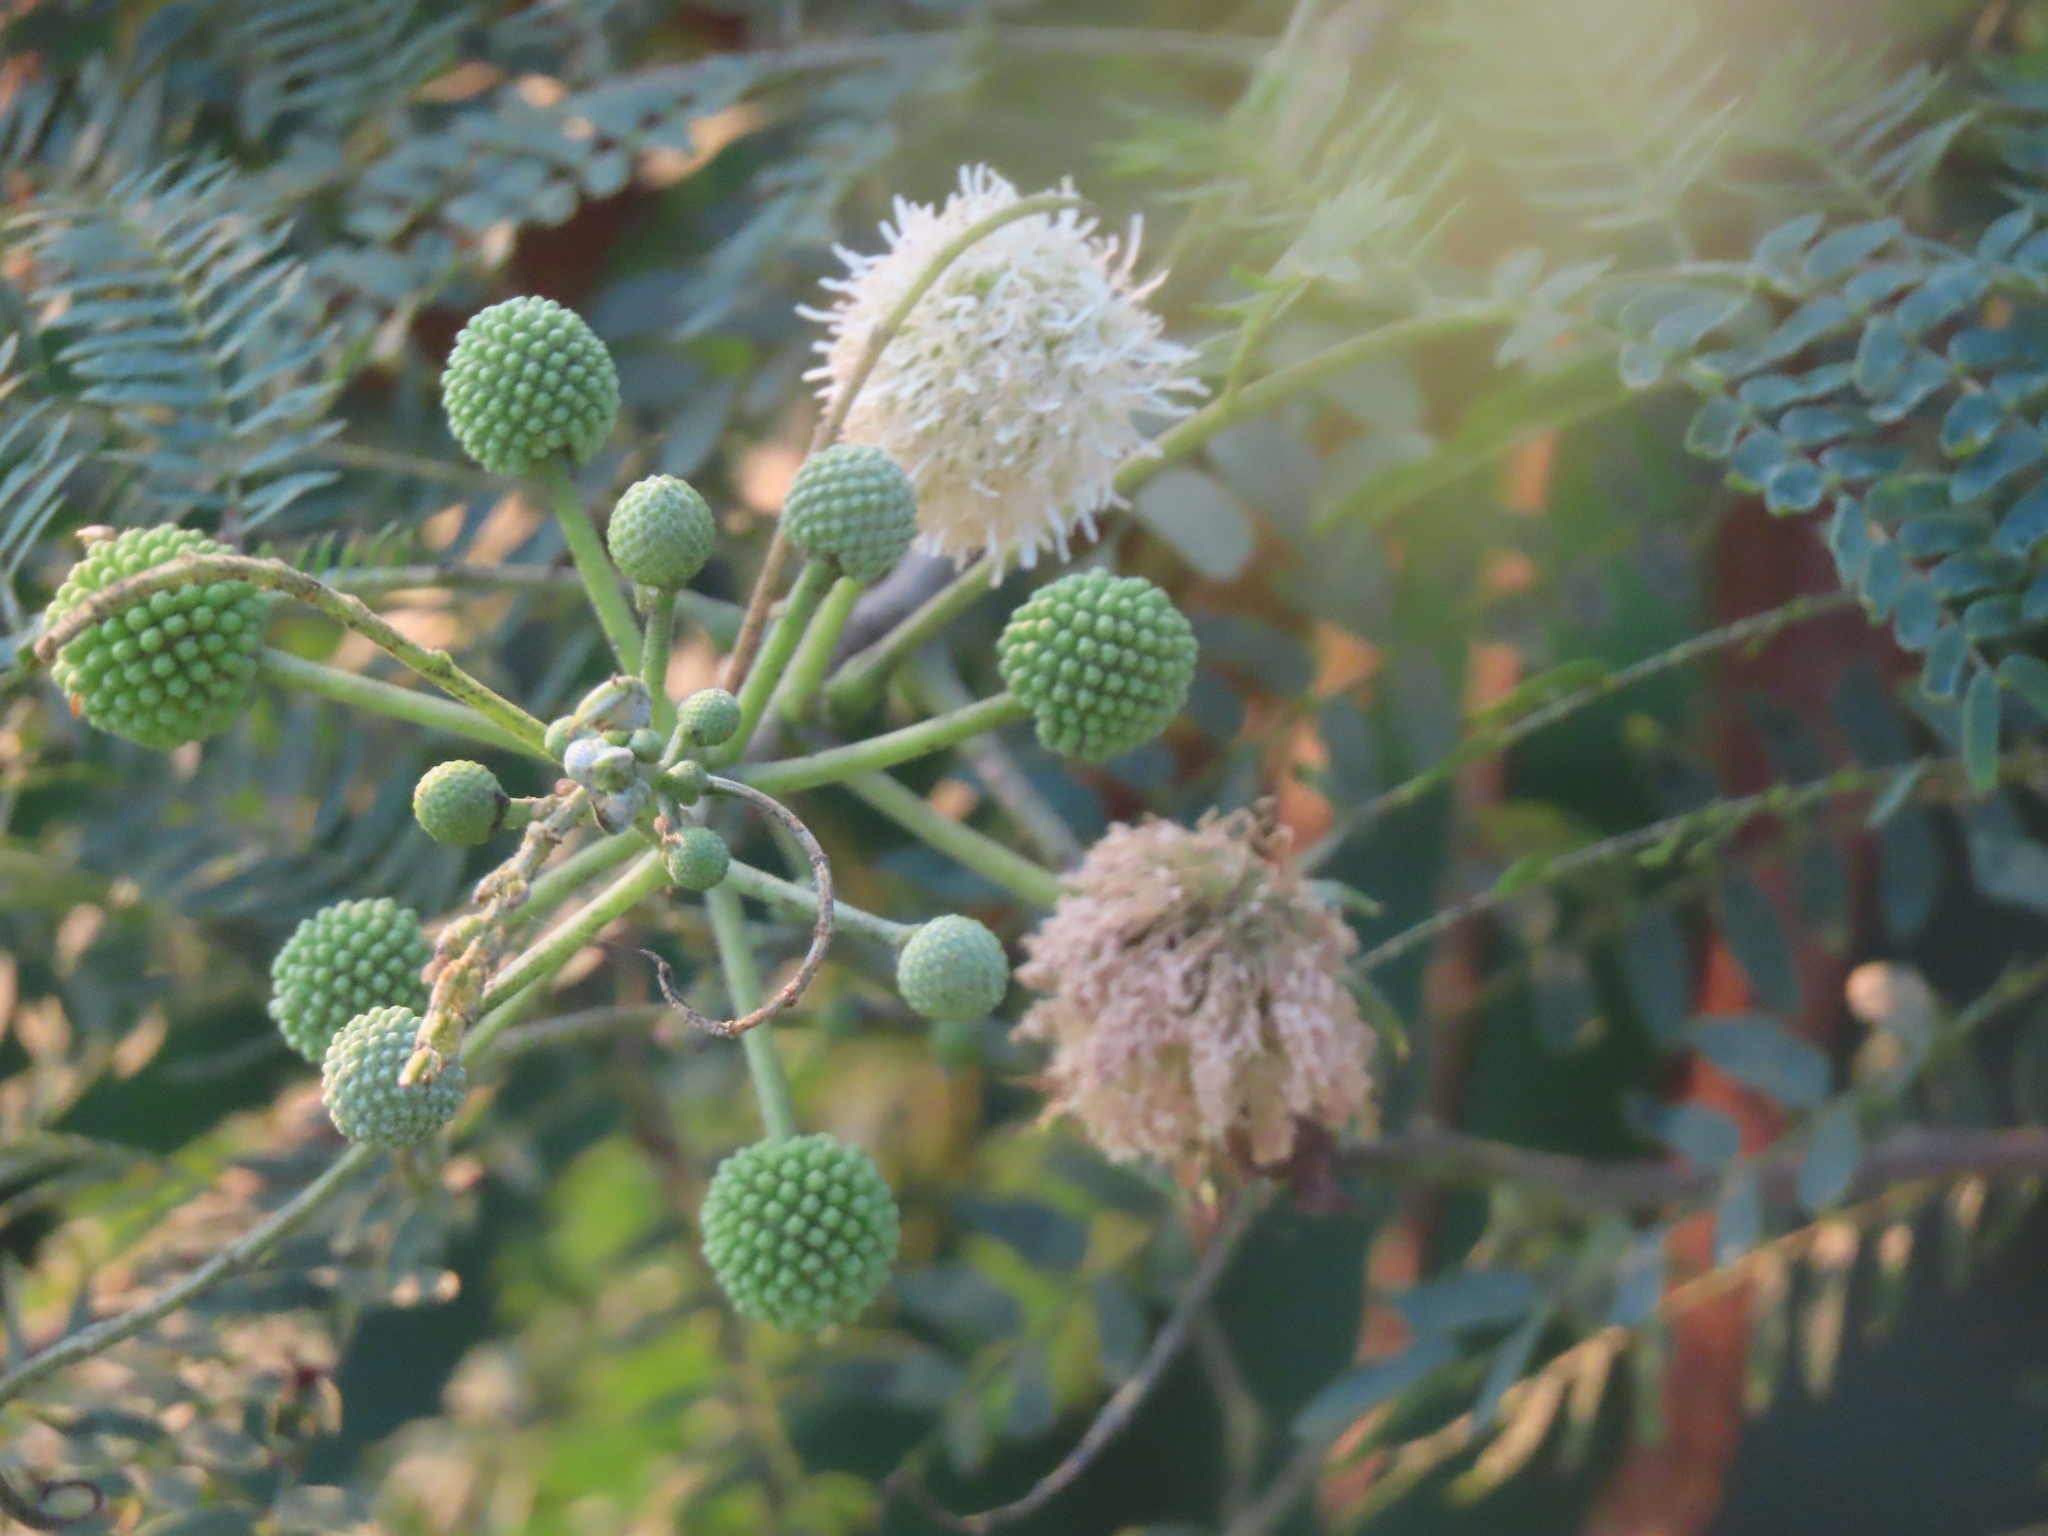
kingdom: Plantae
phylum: Tracheophyta
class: Magnoliopsida
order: Fabales
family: Fabaceae
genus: Leucaena
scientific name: Leucaena leucocephala
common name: White leadtree
